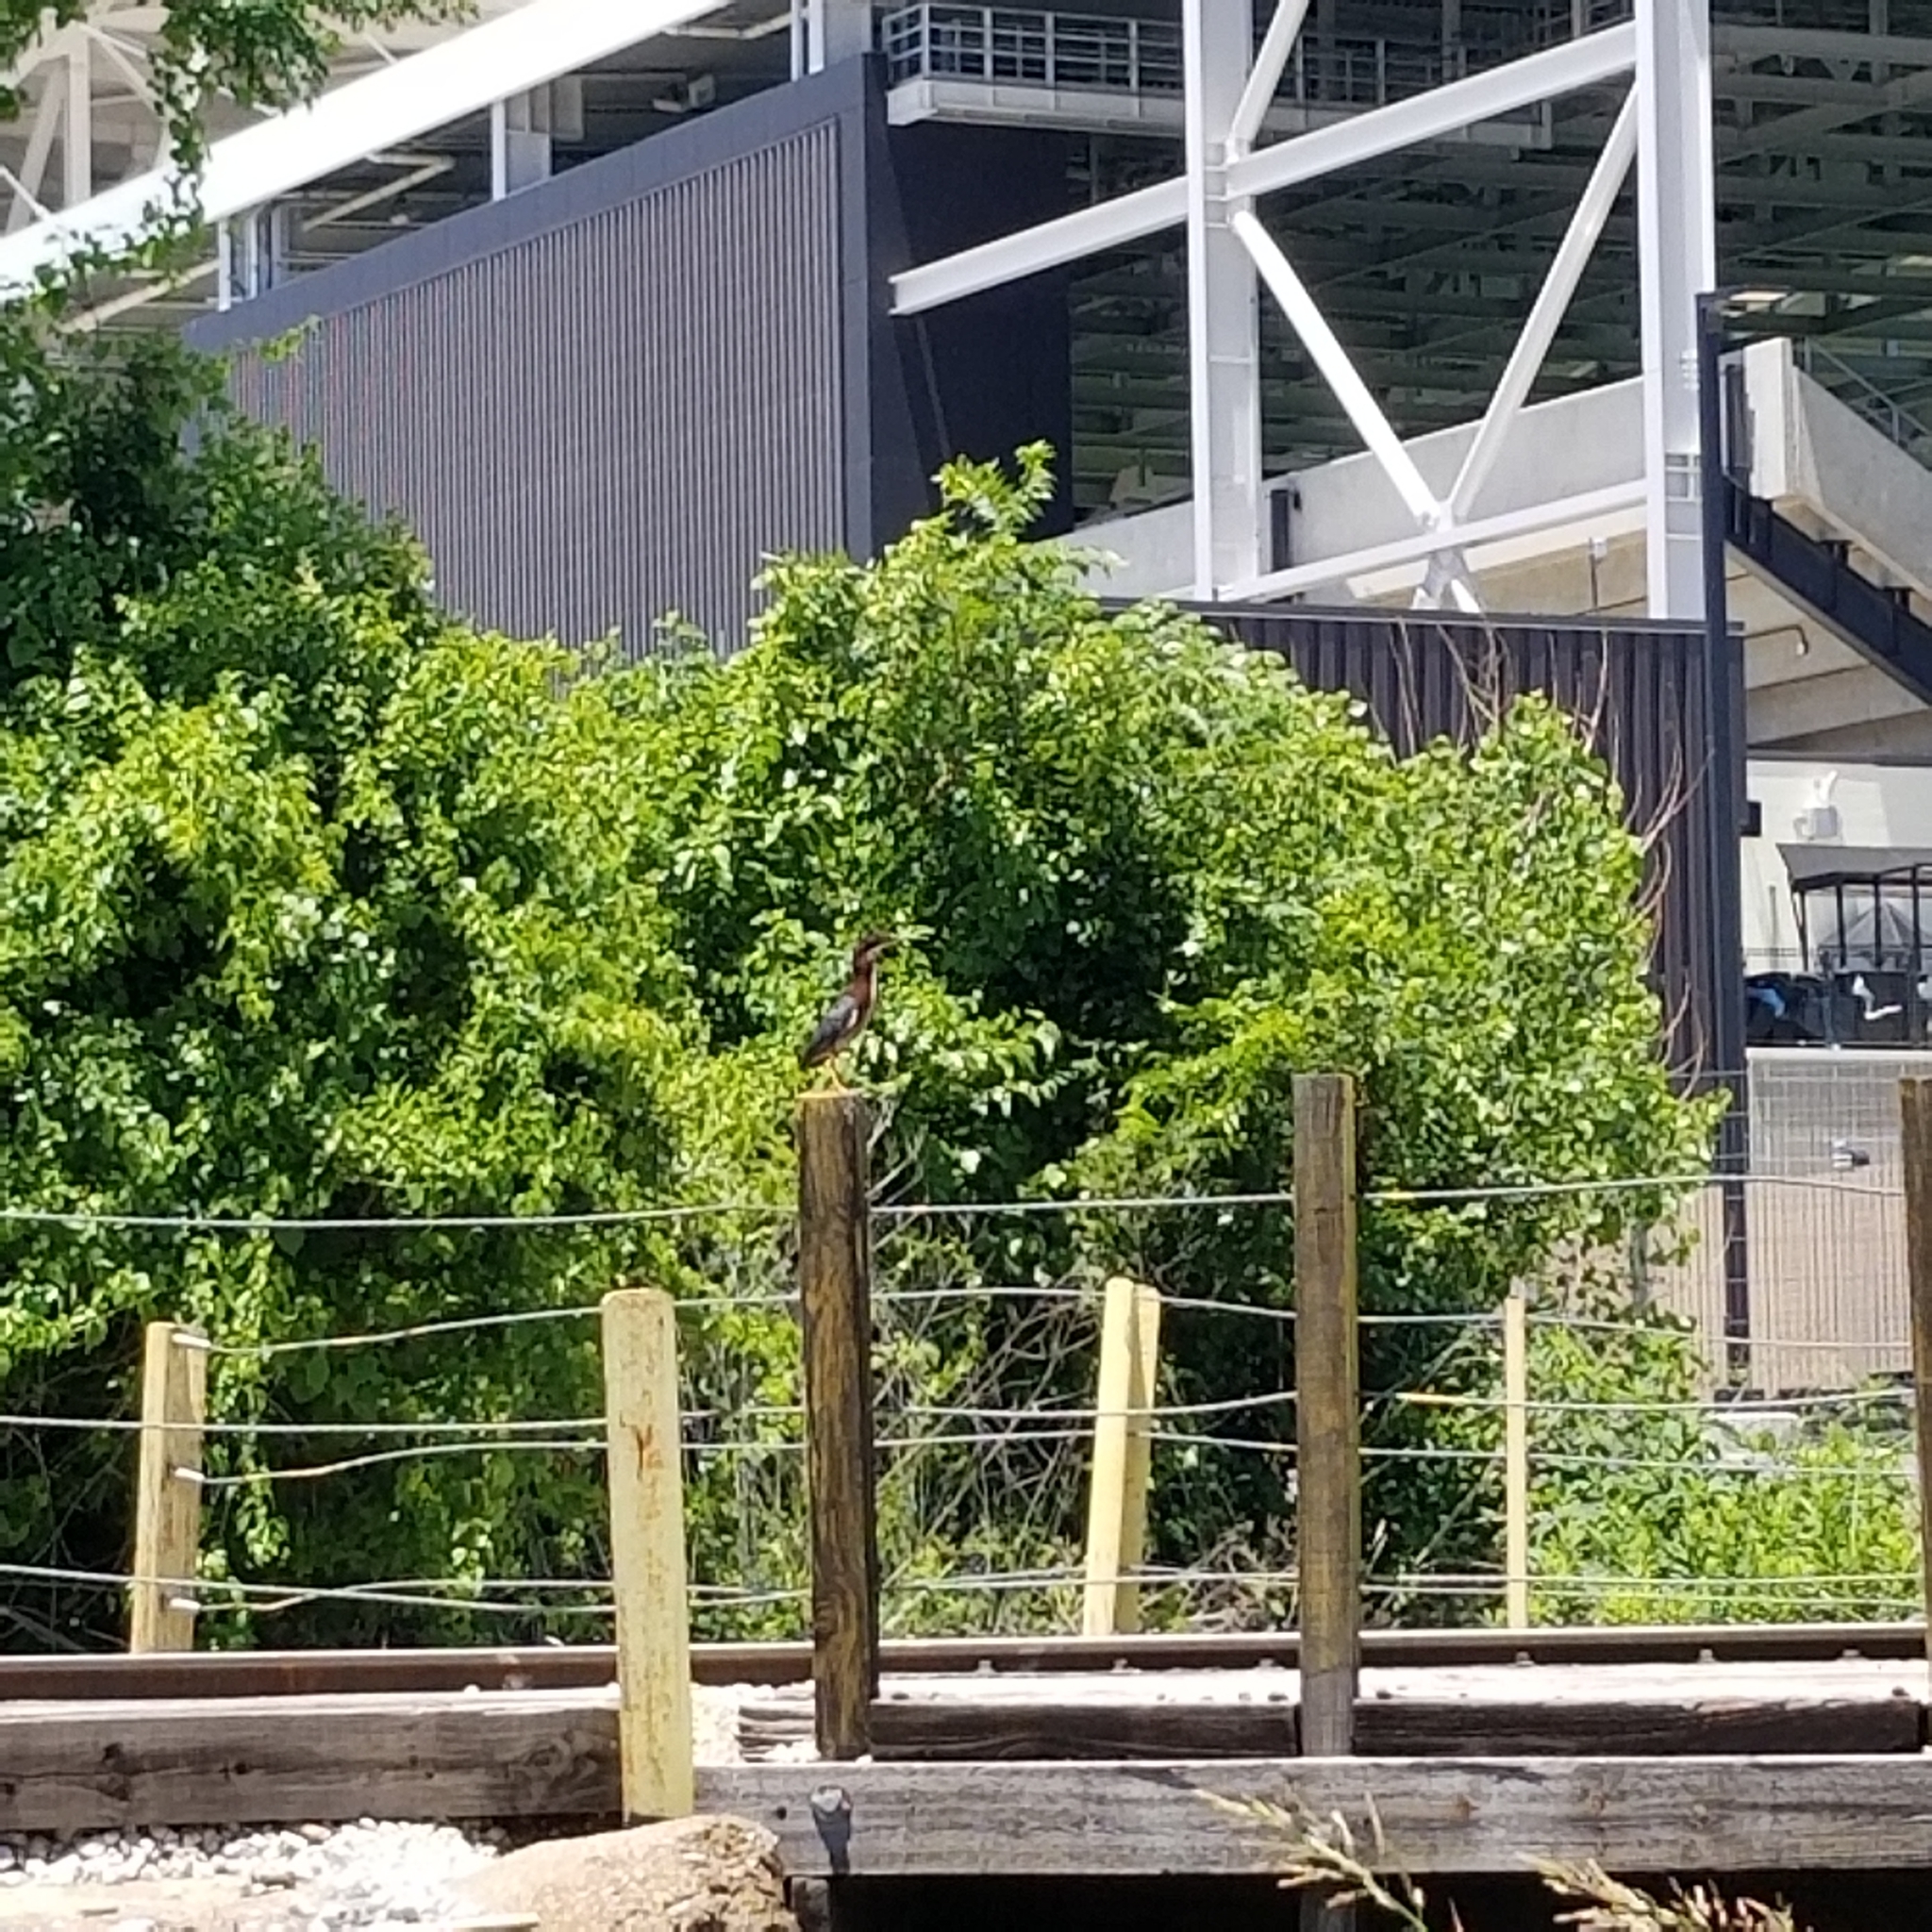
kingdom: Animalia
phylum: Chordata
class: Aves
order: Pelecaniformes
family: Ardeidae
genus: Butorides
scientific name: Butorides virescens
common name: Green heron
